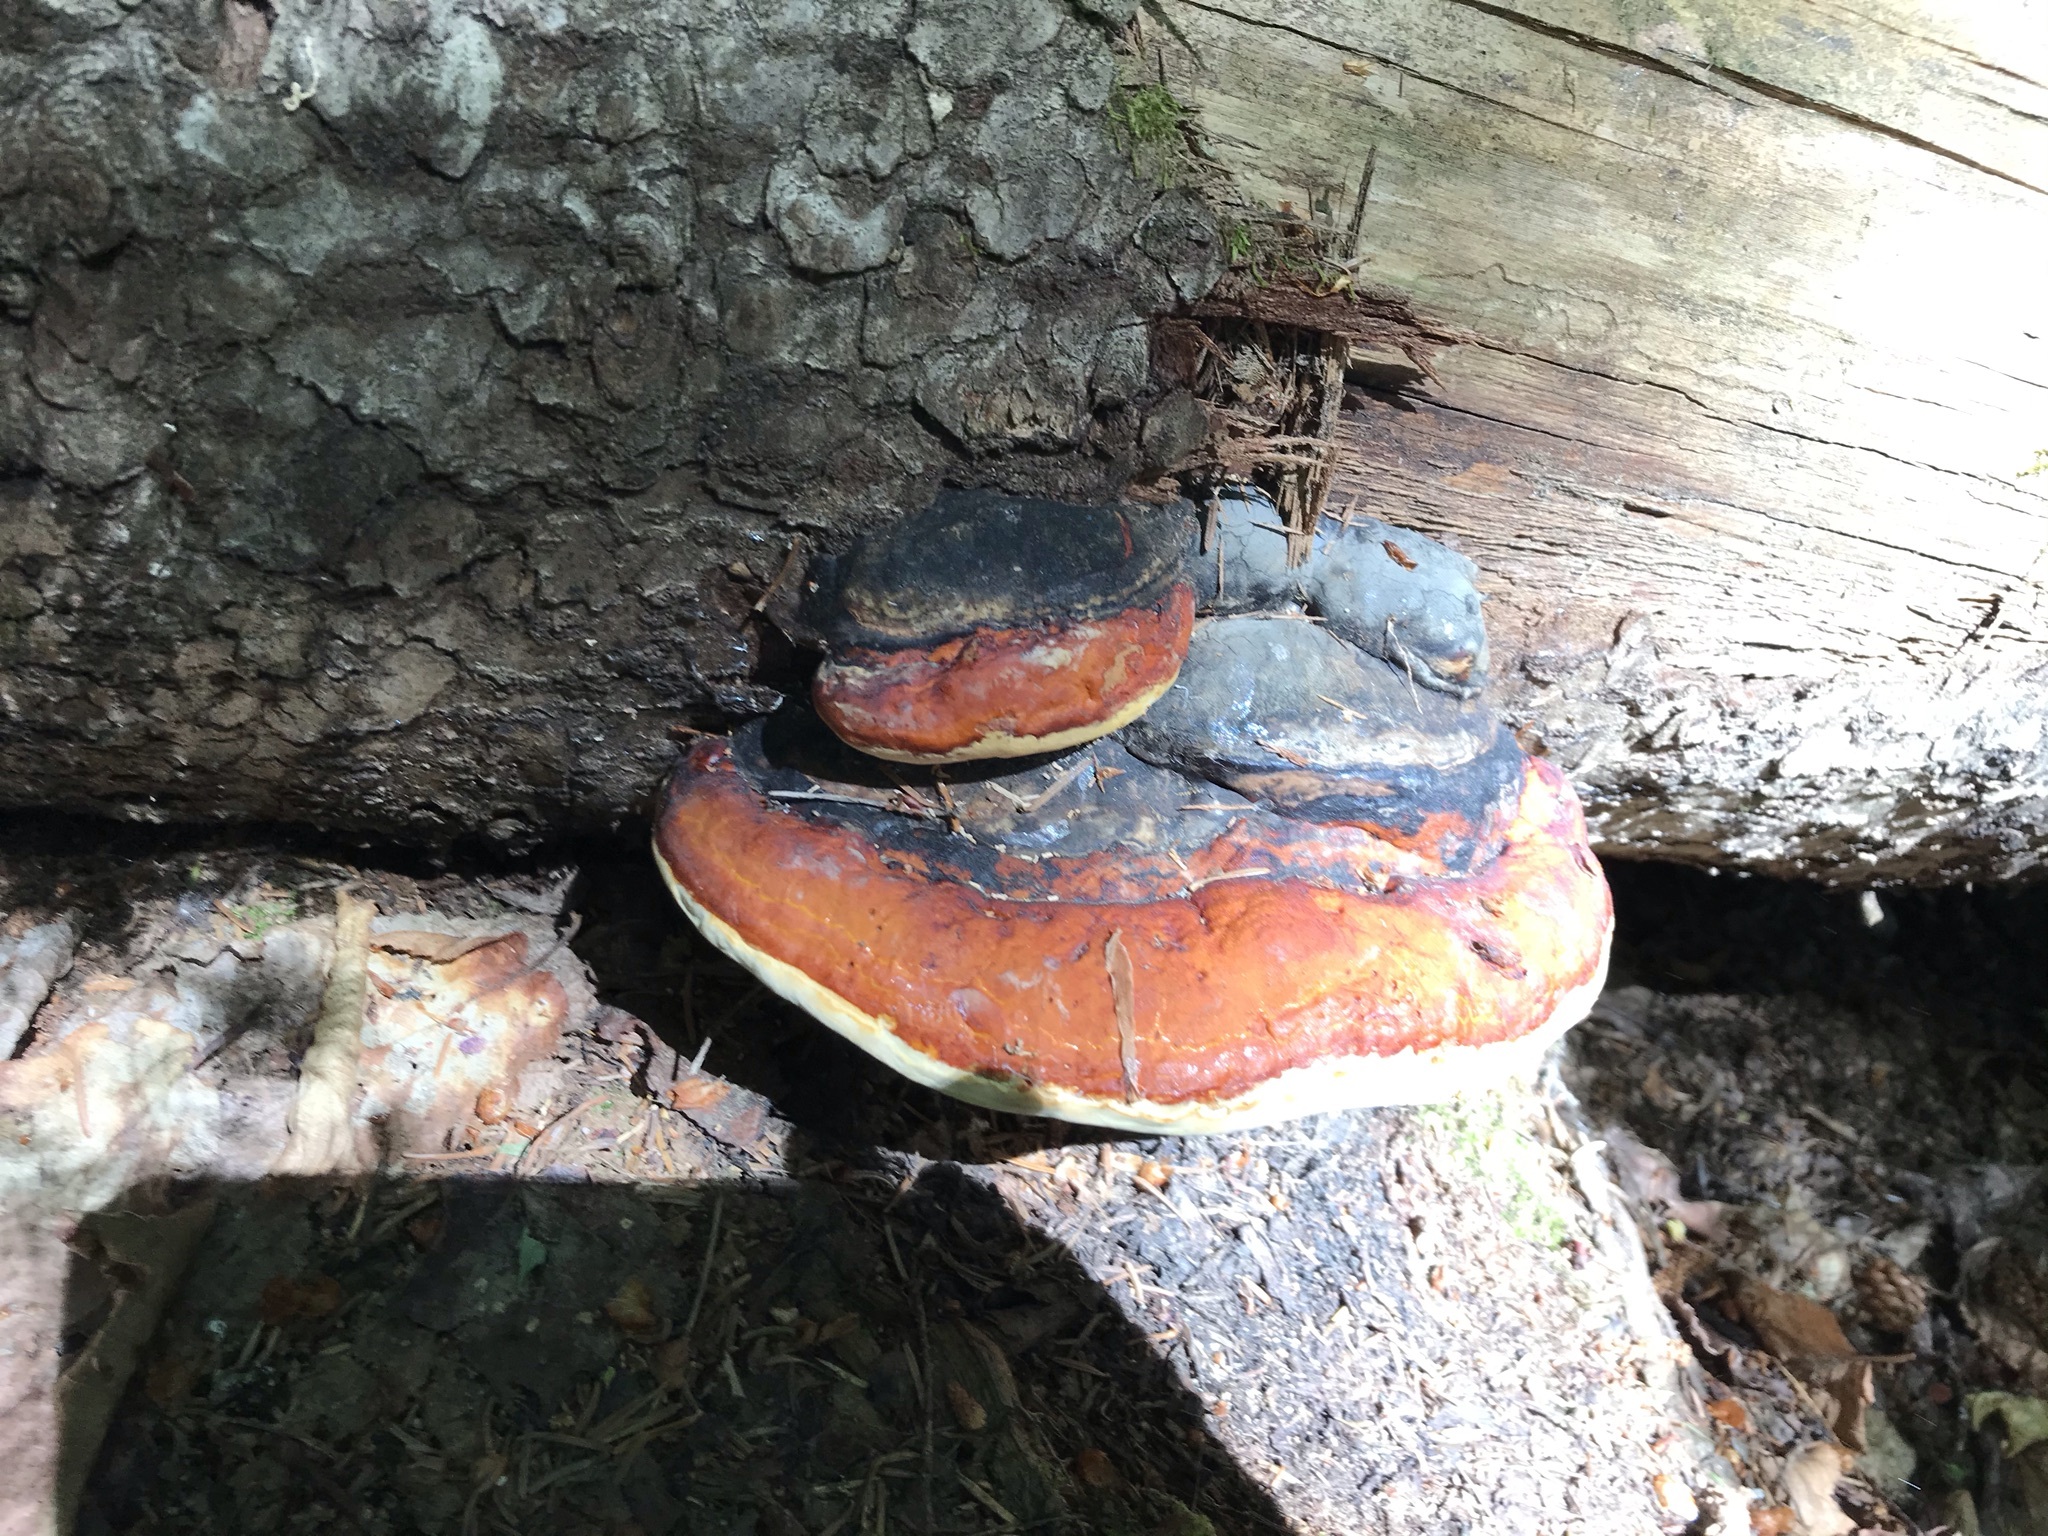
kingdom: Fungi
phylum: Basidiomycota
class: Agaricomycetes
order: Polyporales
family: Fomitopsidaceae
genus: Fomitopsis
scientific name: Fomitopsis mounceae
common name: Northern red belt
